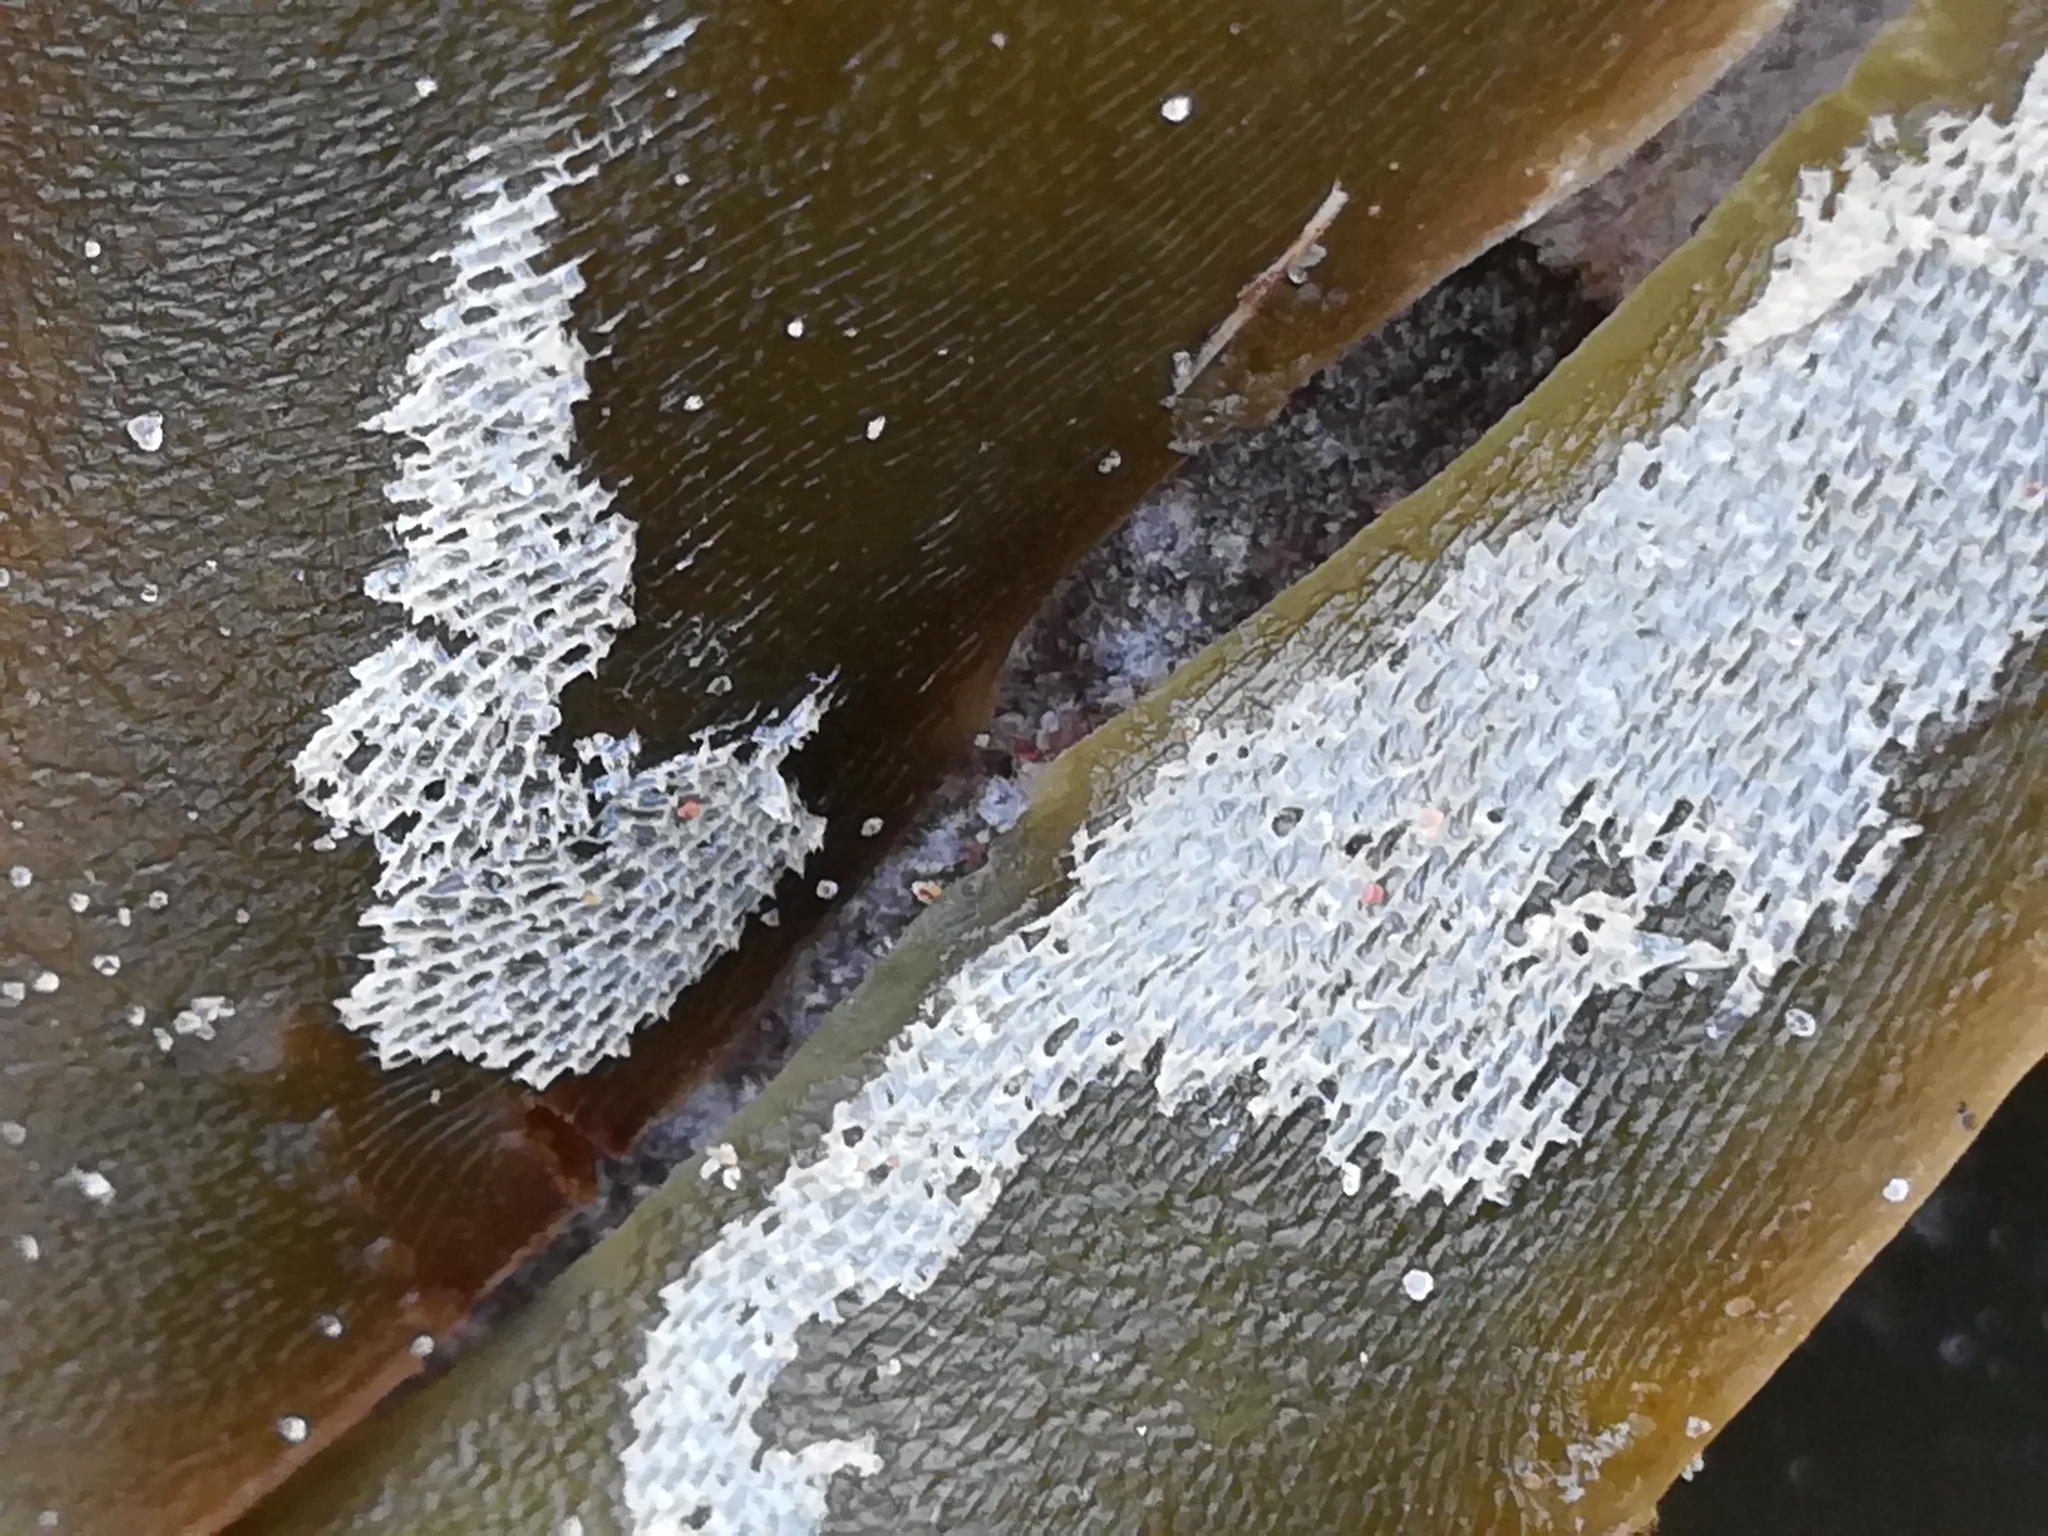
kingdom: Animalia
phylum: Bryozoa
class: Gymnolaemata
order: Cheilostomatida
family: Membraniporidae
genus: Membranipora
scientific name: Membranipora membranacea
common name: Sea mat
